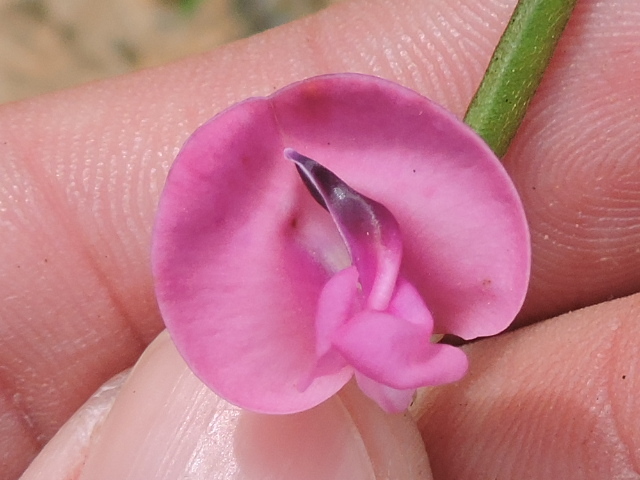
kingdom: Plantae
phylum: Tracheophyta
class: Magnoliopsida
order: Fabales
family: Fabaceae
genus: Strophostyles
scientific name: Strophostyles umbellata
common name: Perennial wild bean
